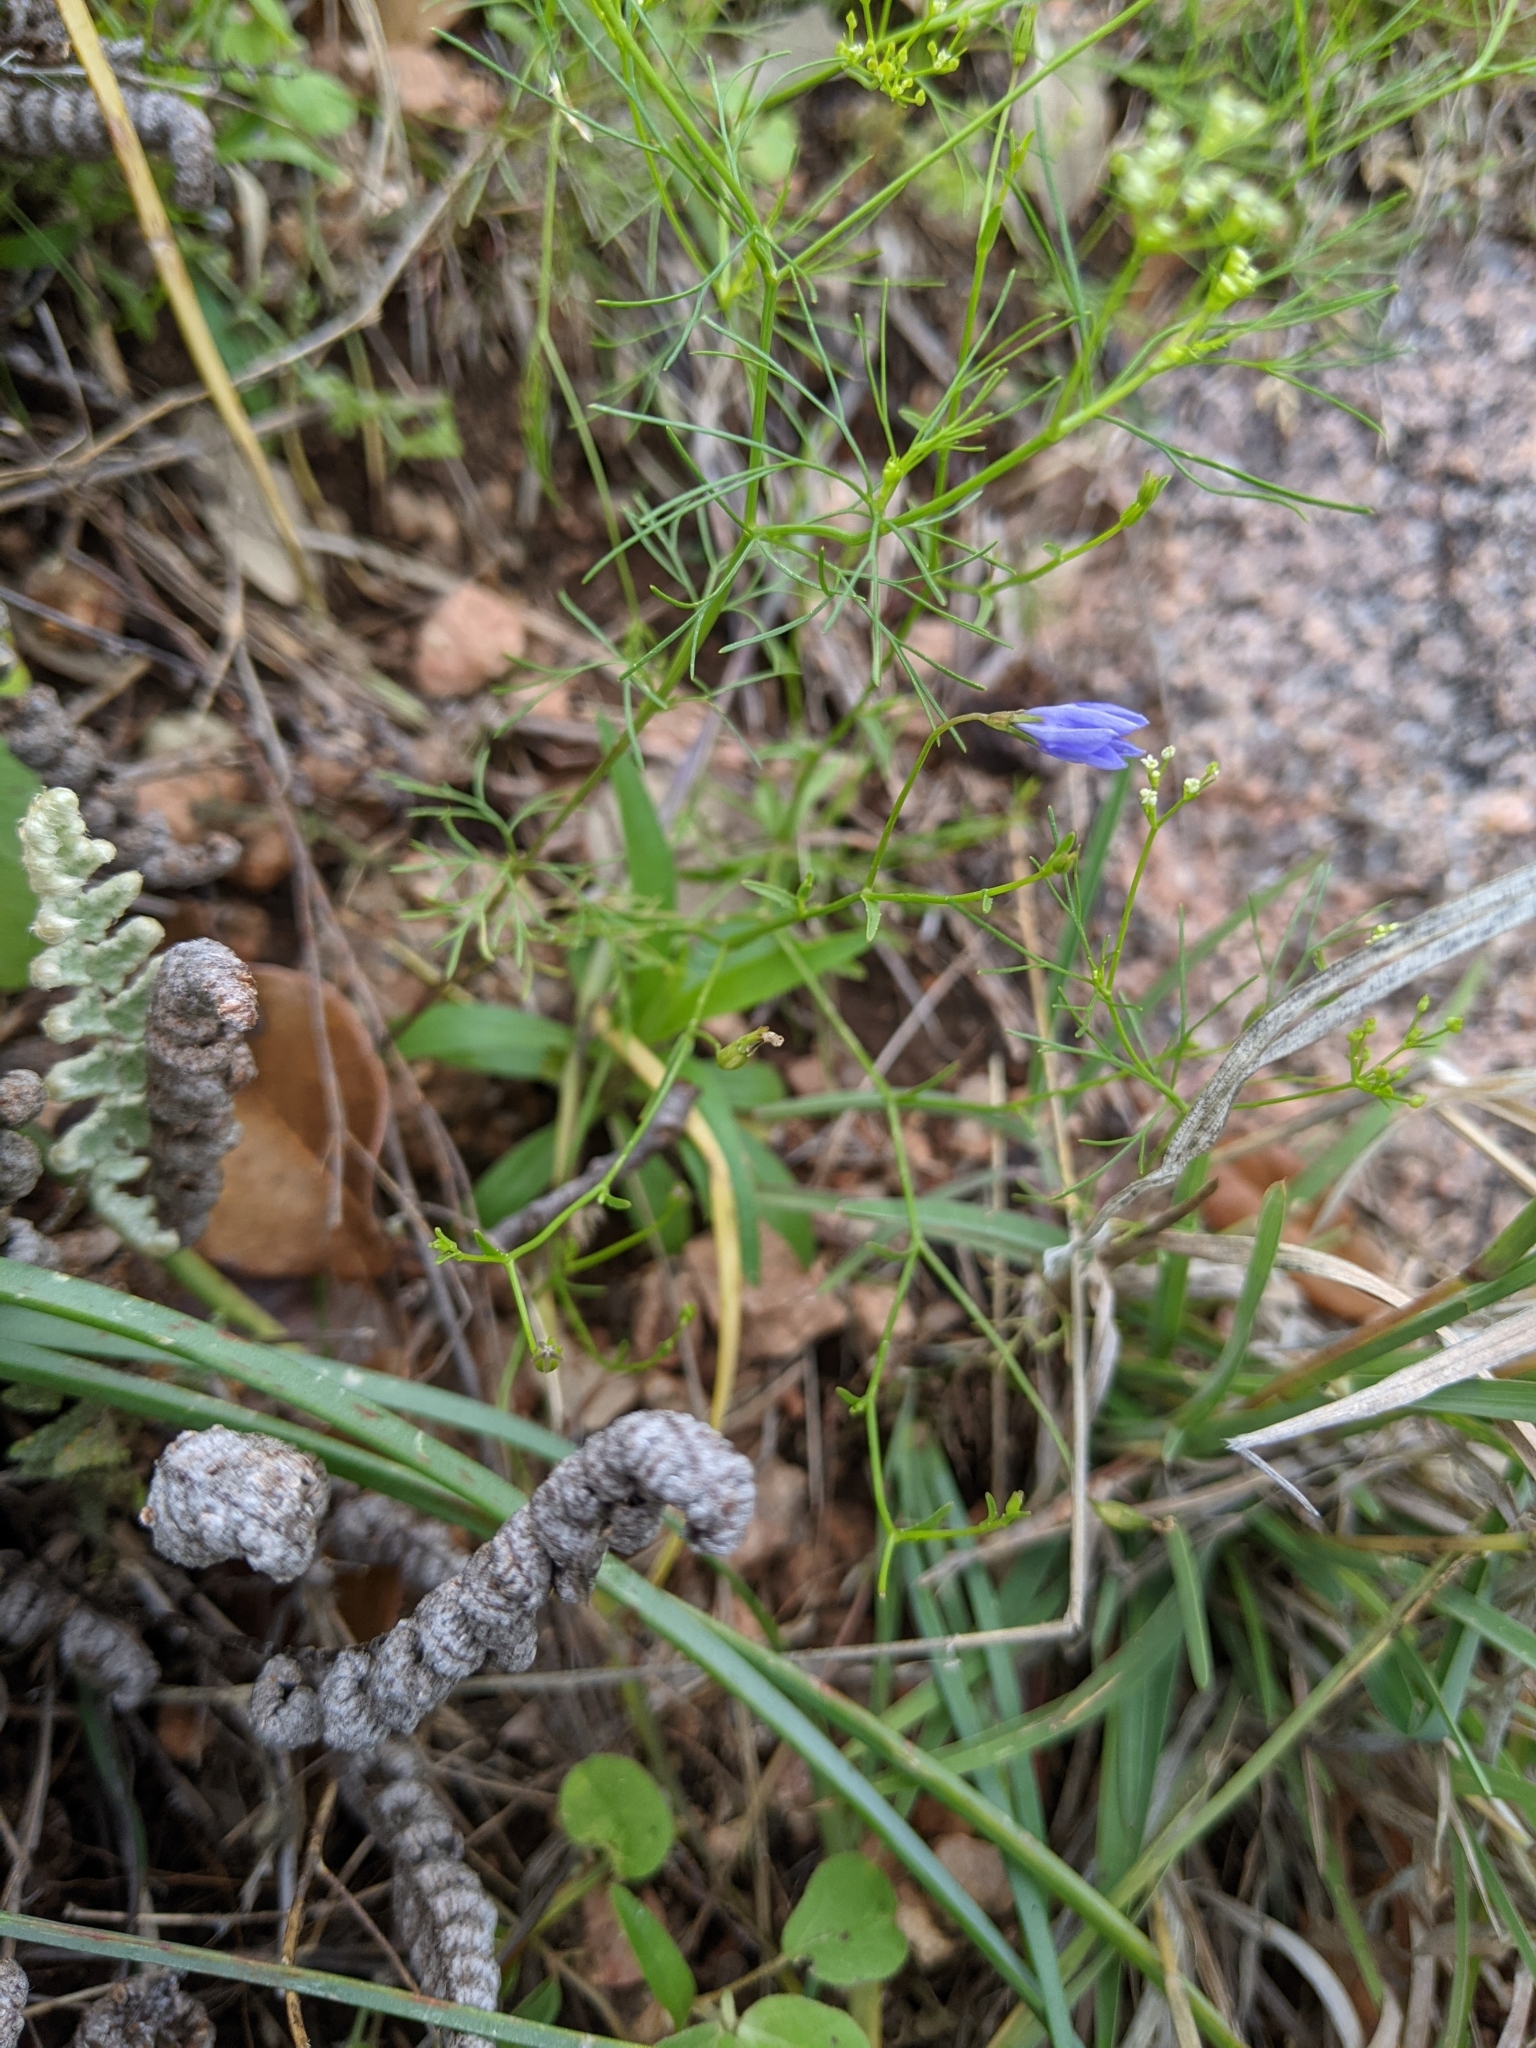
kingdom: Plantae
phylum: Tracheophyta
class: Magnoliopsida
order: Asterales
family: Campanulaceae
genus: Poolea
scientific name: Poolea reverchonii
